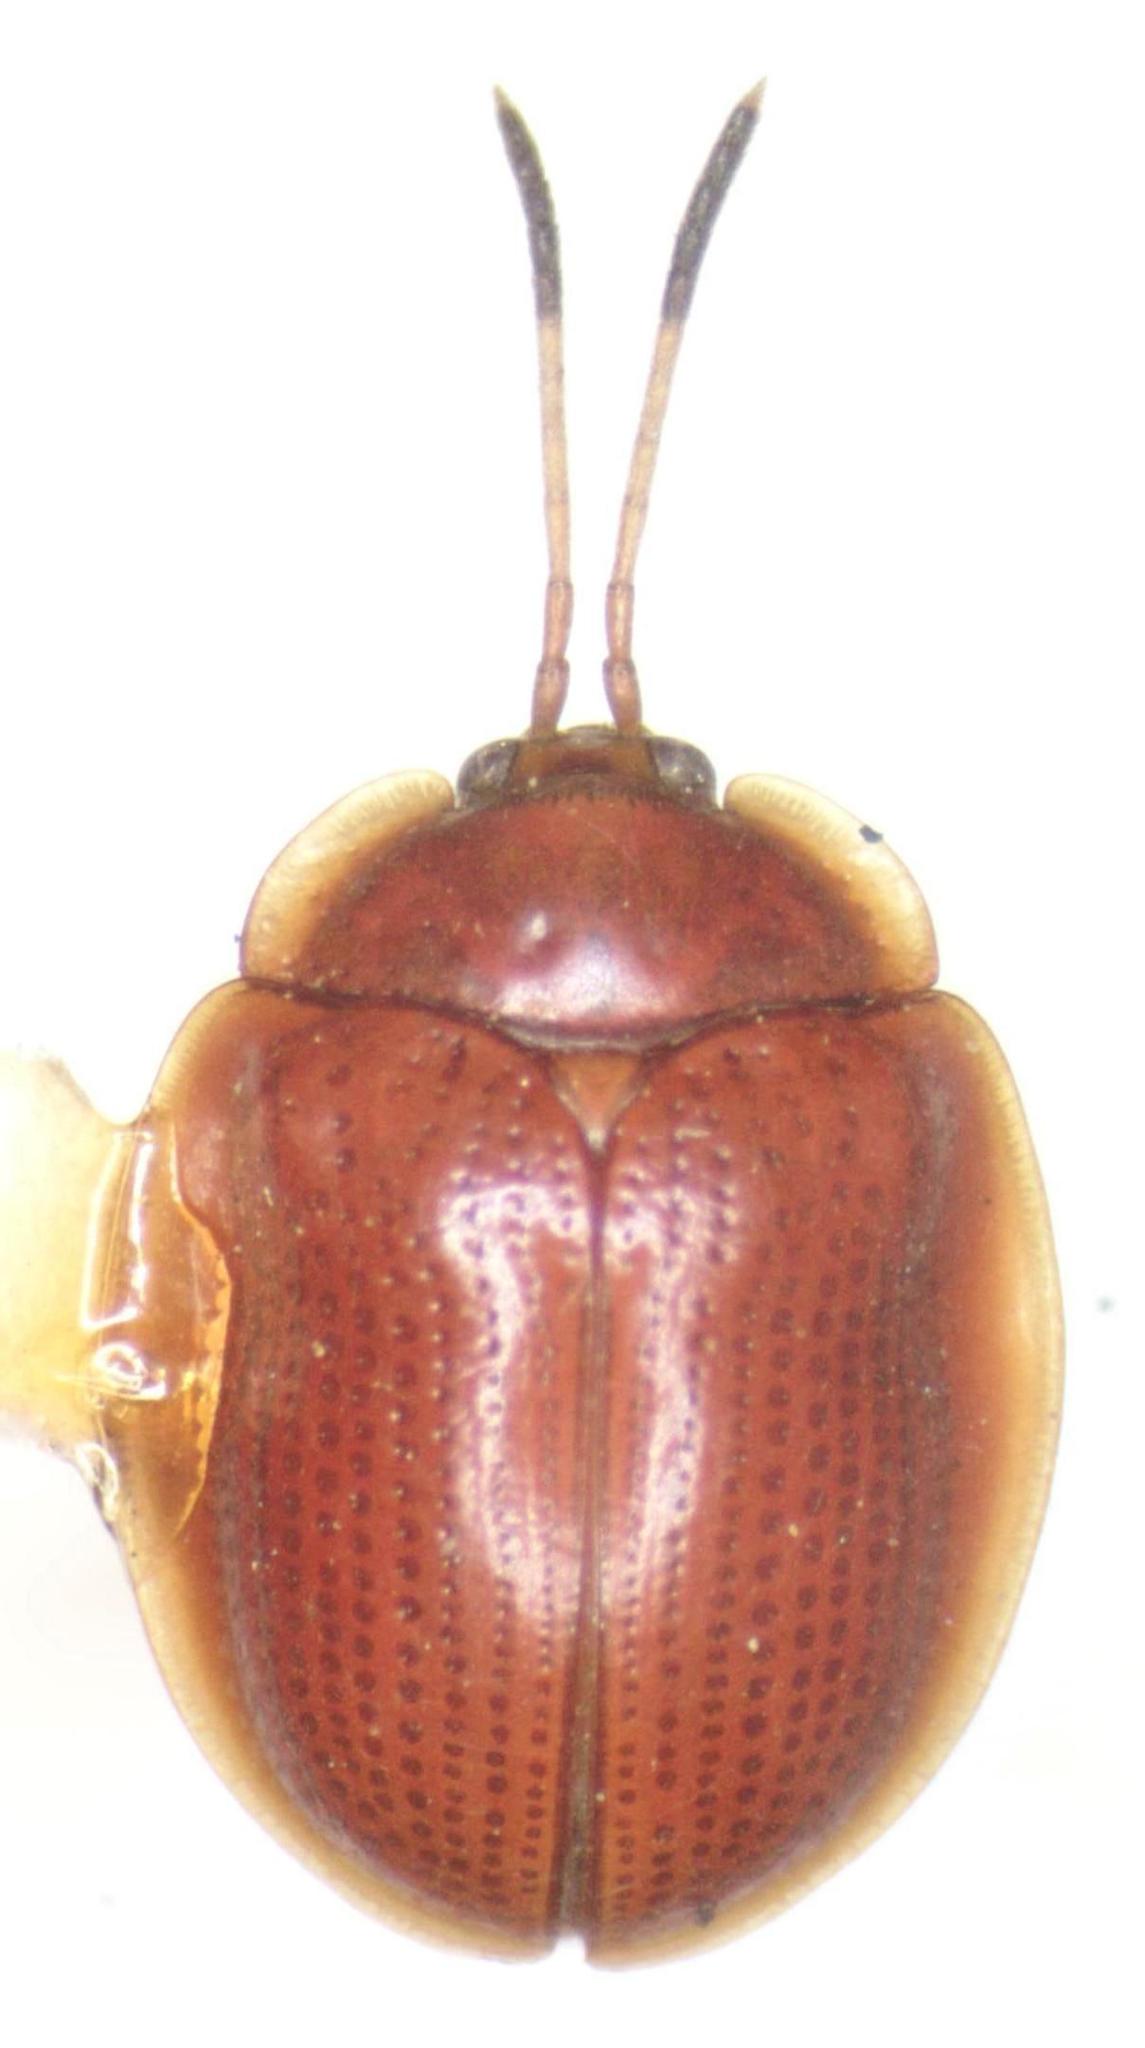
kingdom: Animalia
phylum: Arthropoda
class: Insecta
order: Coleoptera
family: Chrysomelidae
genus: Demotispa
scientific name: Demotispa
